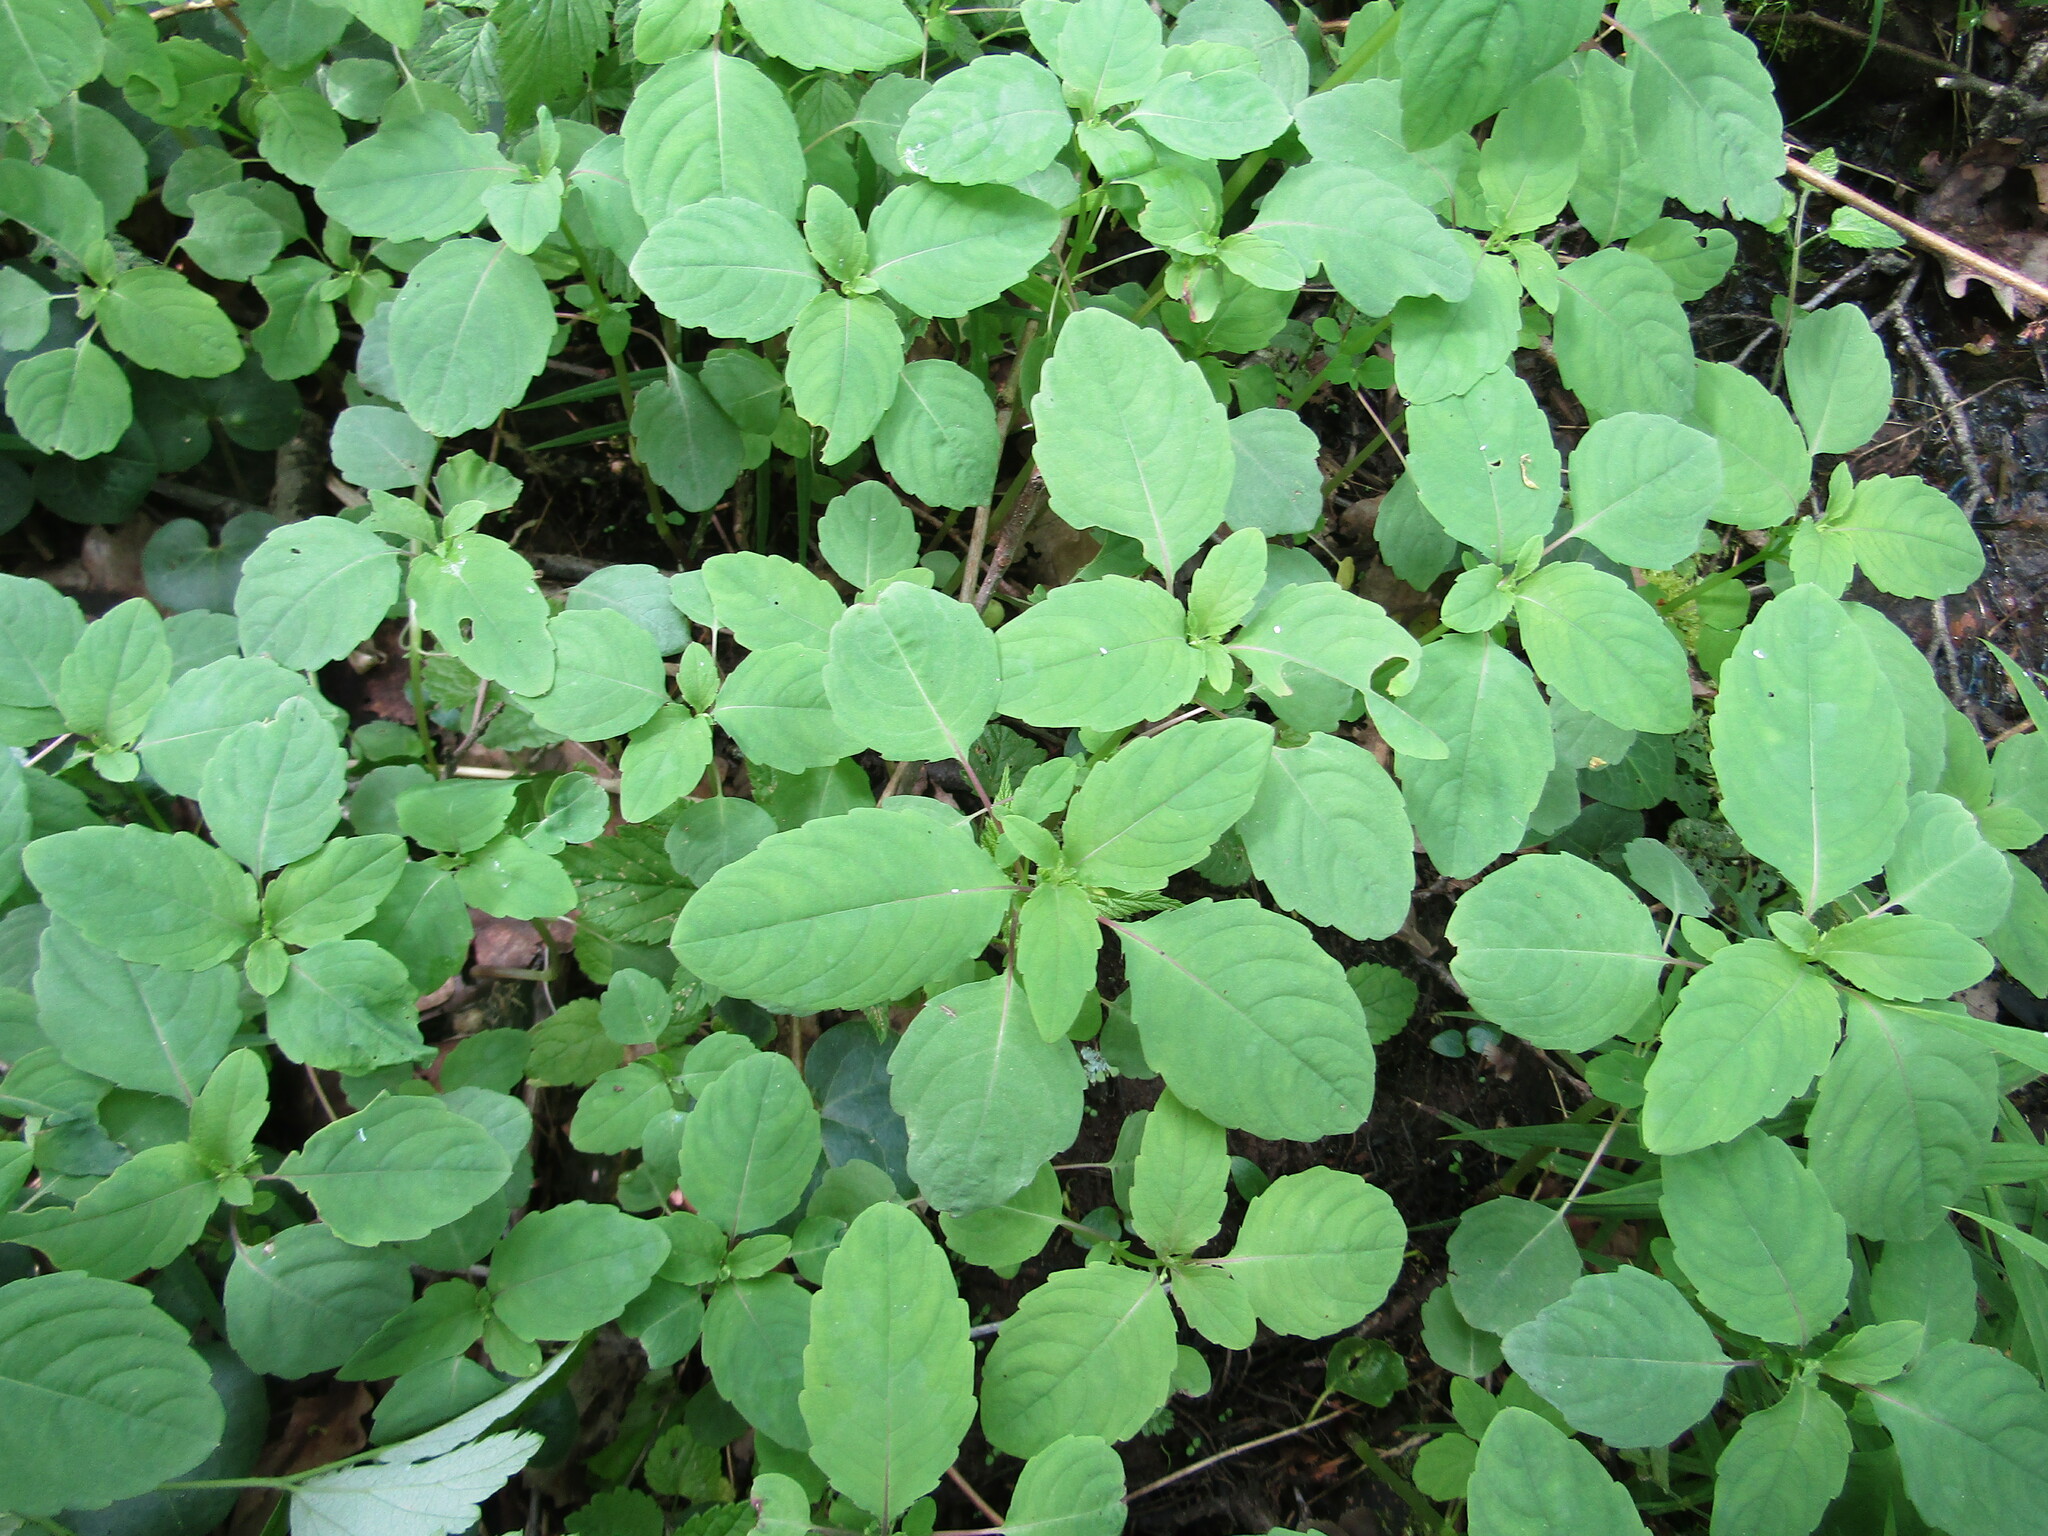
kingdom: Plantae
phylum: Tracheophyta
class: Magnoliopsida
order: Ericales
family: Balsaminaceae
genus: Impatiens
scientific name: Impatiens noli-tangere
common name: Touch-me-not balsam
